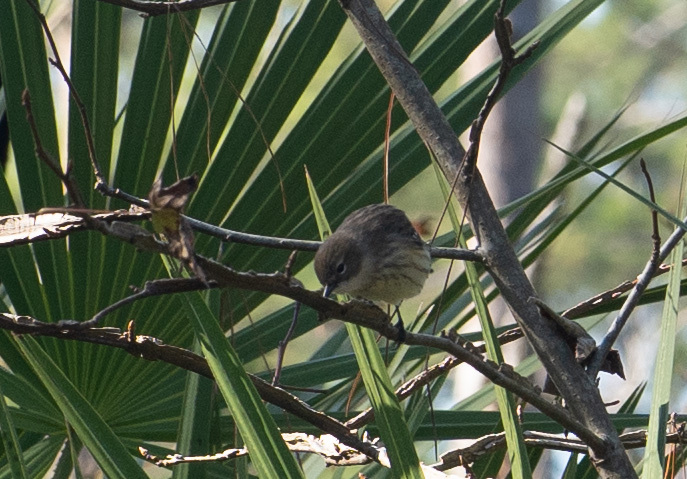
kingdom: Animalia
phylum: Chordata
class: Aves
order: Passeriformes
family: Parulidae
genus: Setophaga
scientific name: Setophaga coronata
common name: Myrtle warbler
